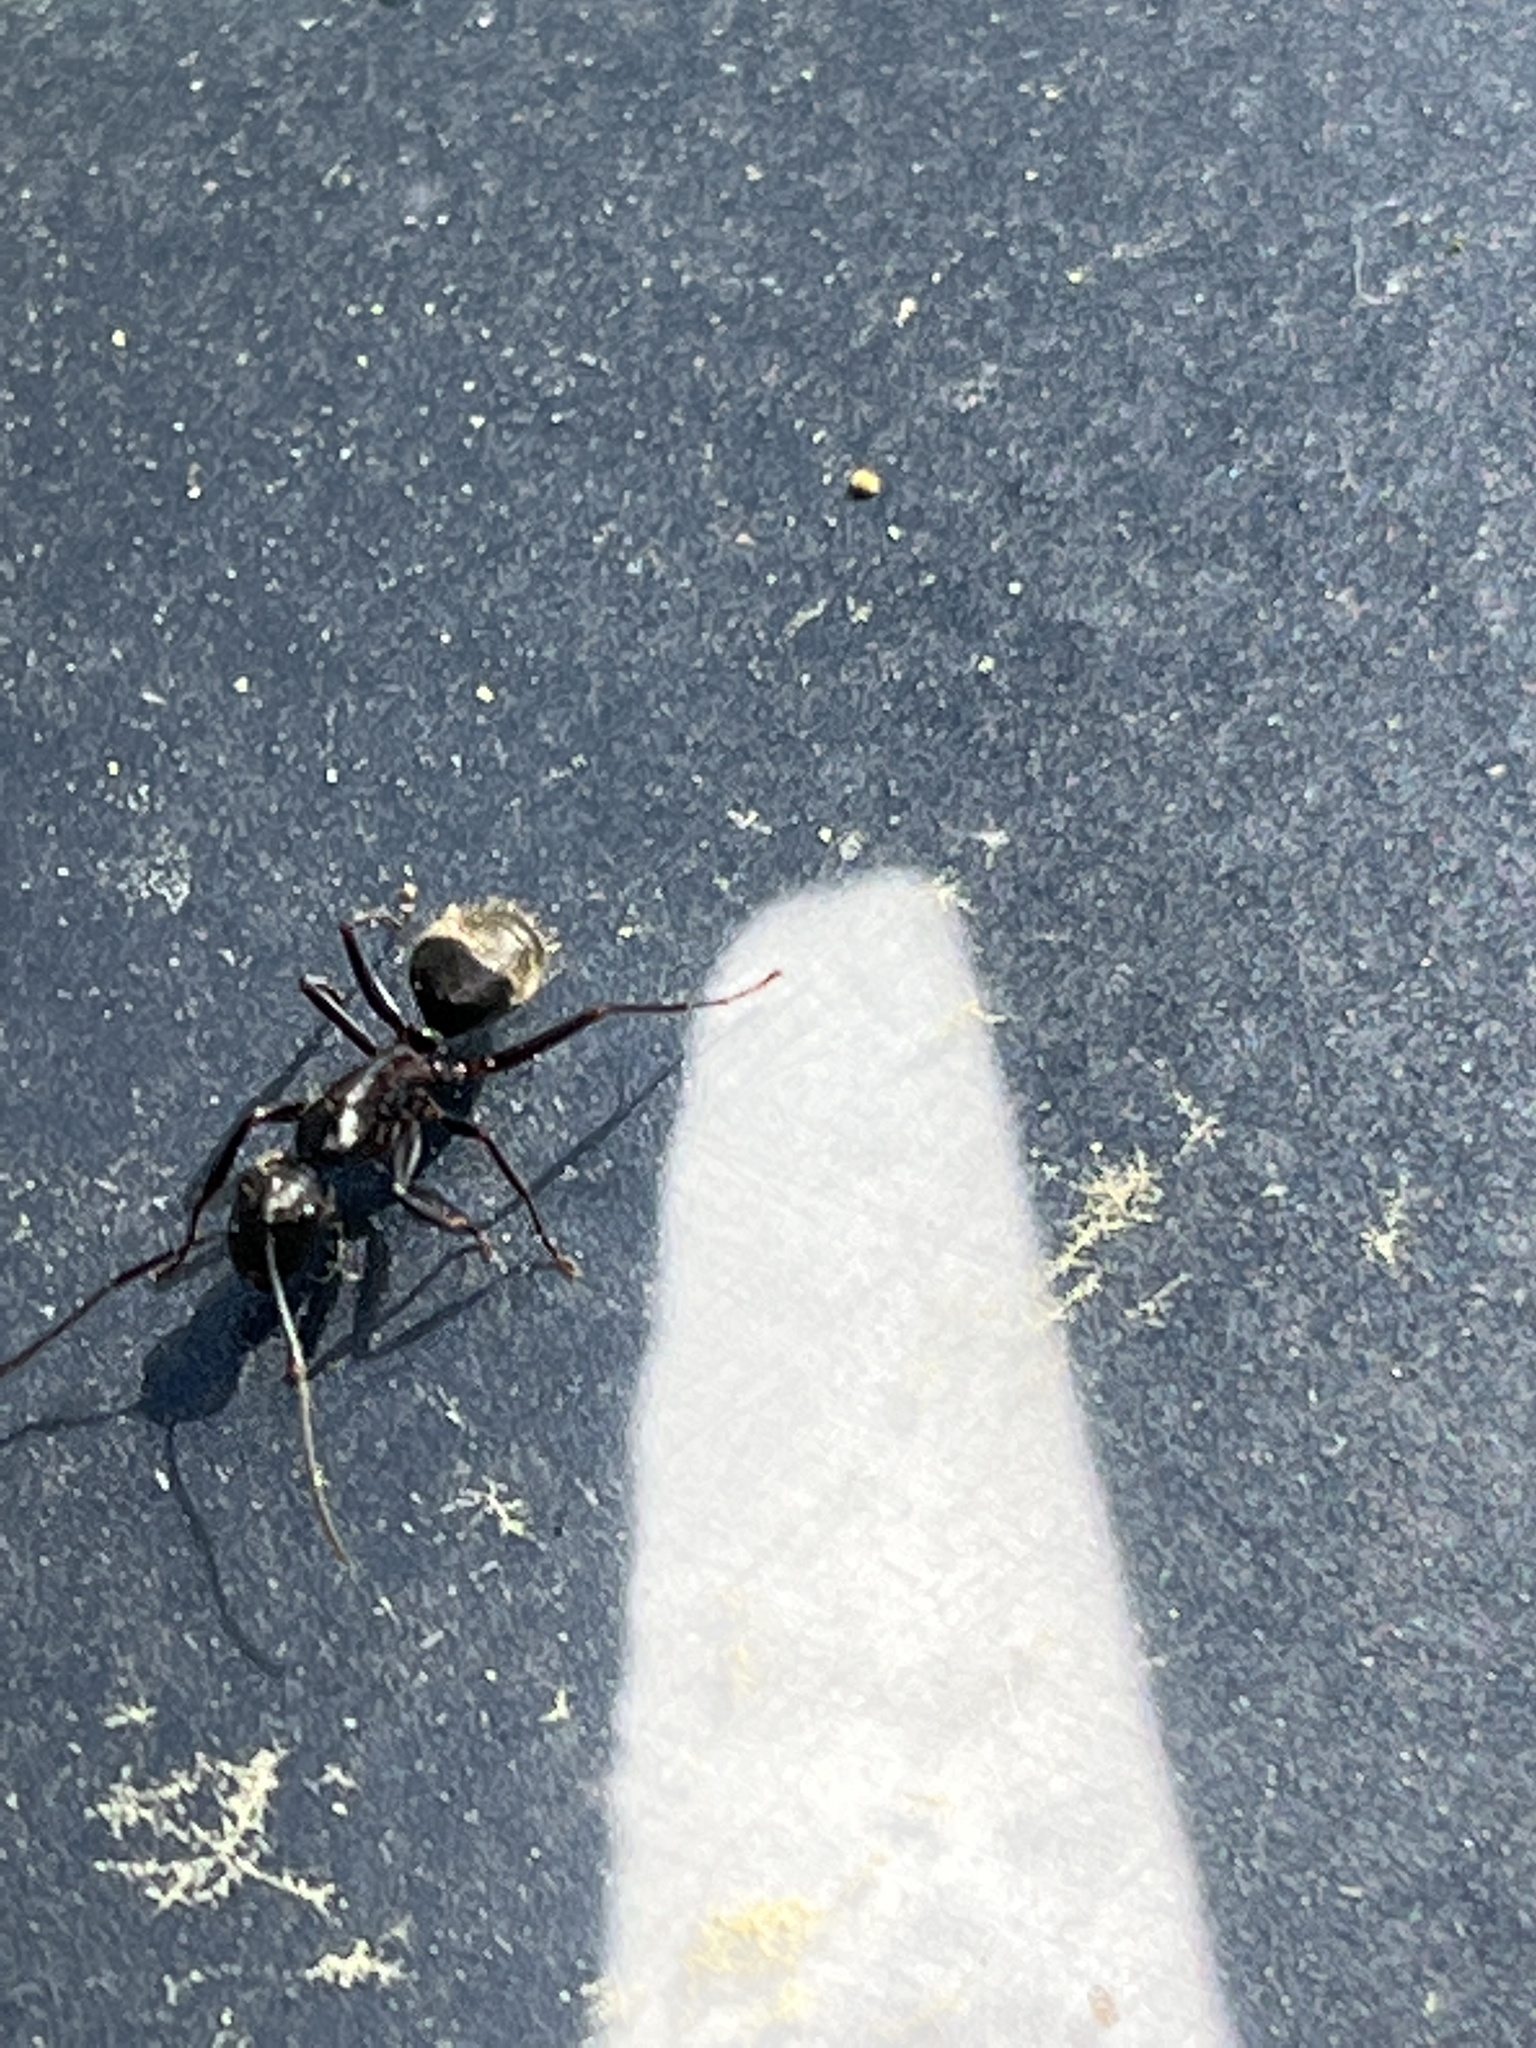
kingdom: Animalia
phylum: Arthropoda
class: Insecta
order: Hymenoptera
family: Formicidae
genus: Camponotus
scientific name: Camponotus pennsylvanicus
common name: Black carpenter ant
